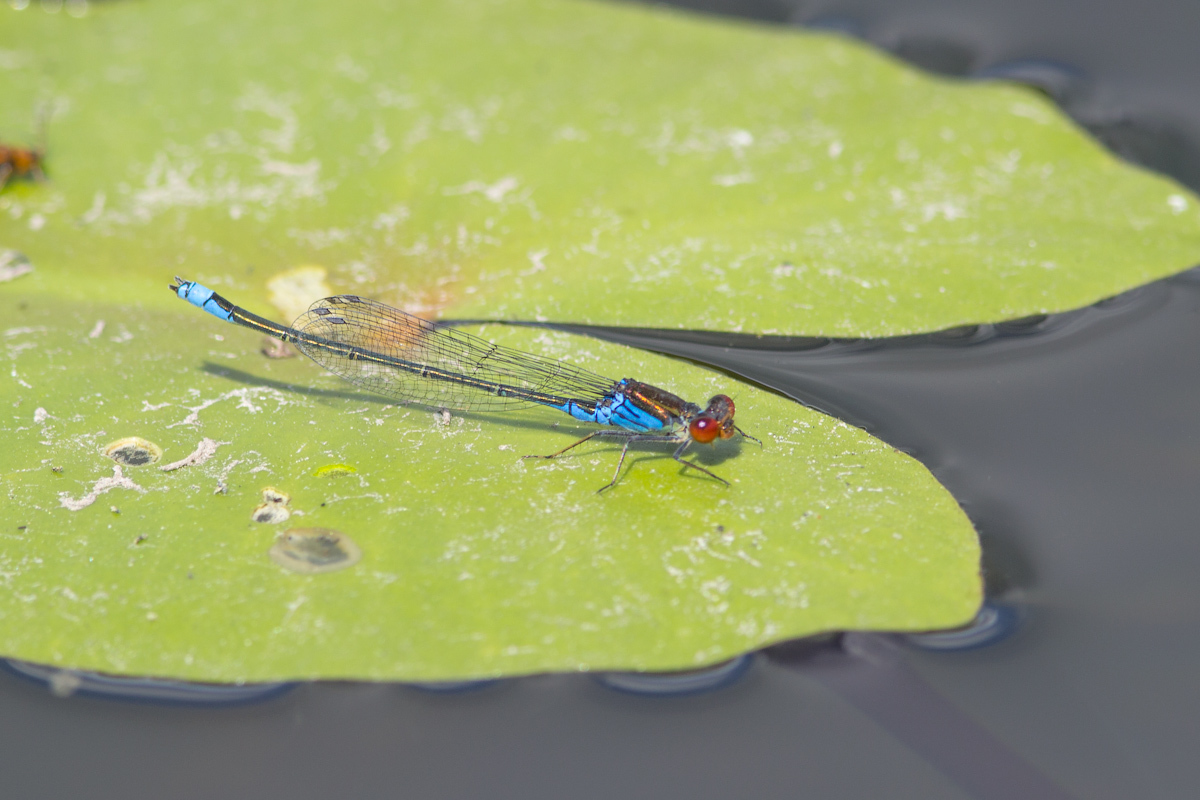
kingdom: Animalia
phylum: Arthropoda
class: Insecta
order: Odonata
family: Coenagrionidae
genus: Erythromma
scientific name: Erythromma viridulum
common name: Small red-eyed damselfly
